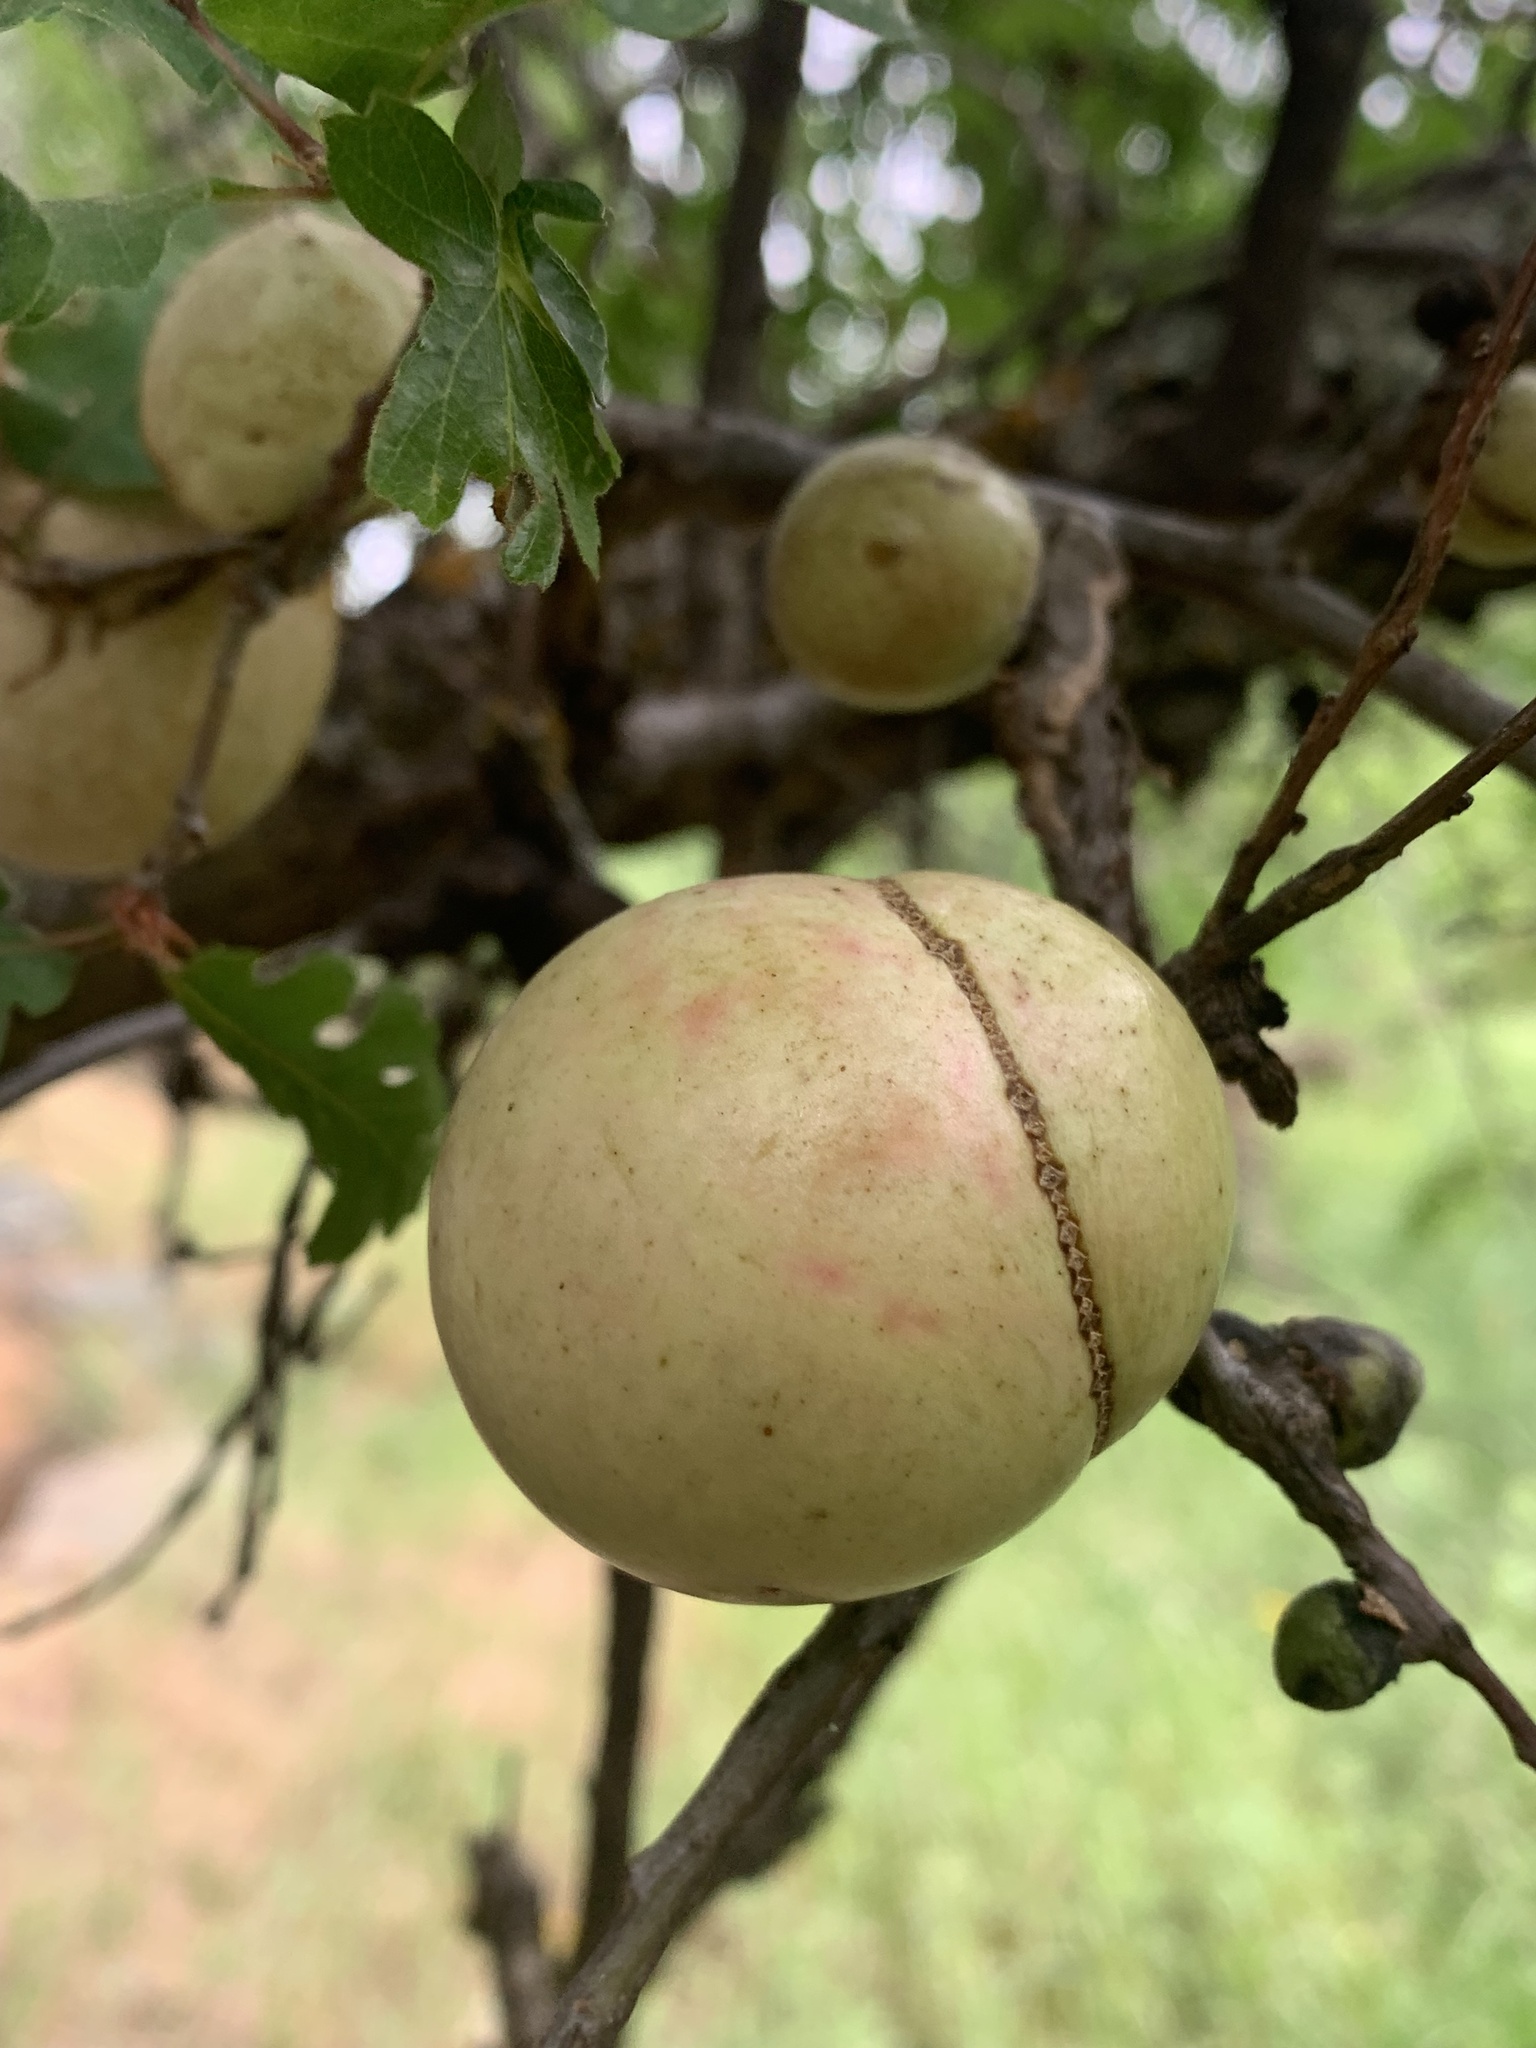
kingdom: Animalia
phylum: Arthropoda
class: Insecta
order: Hymenoptera
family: Cynipidae
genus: Andricus
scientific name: Andricus quercuscalifornicus
